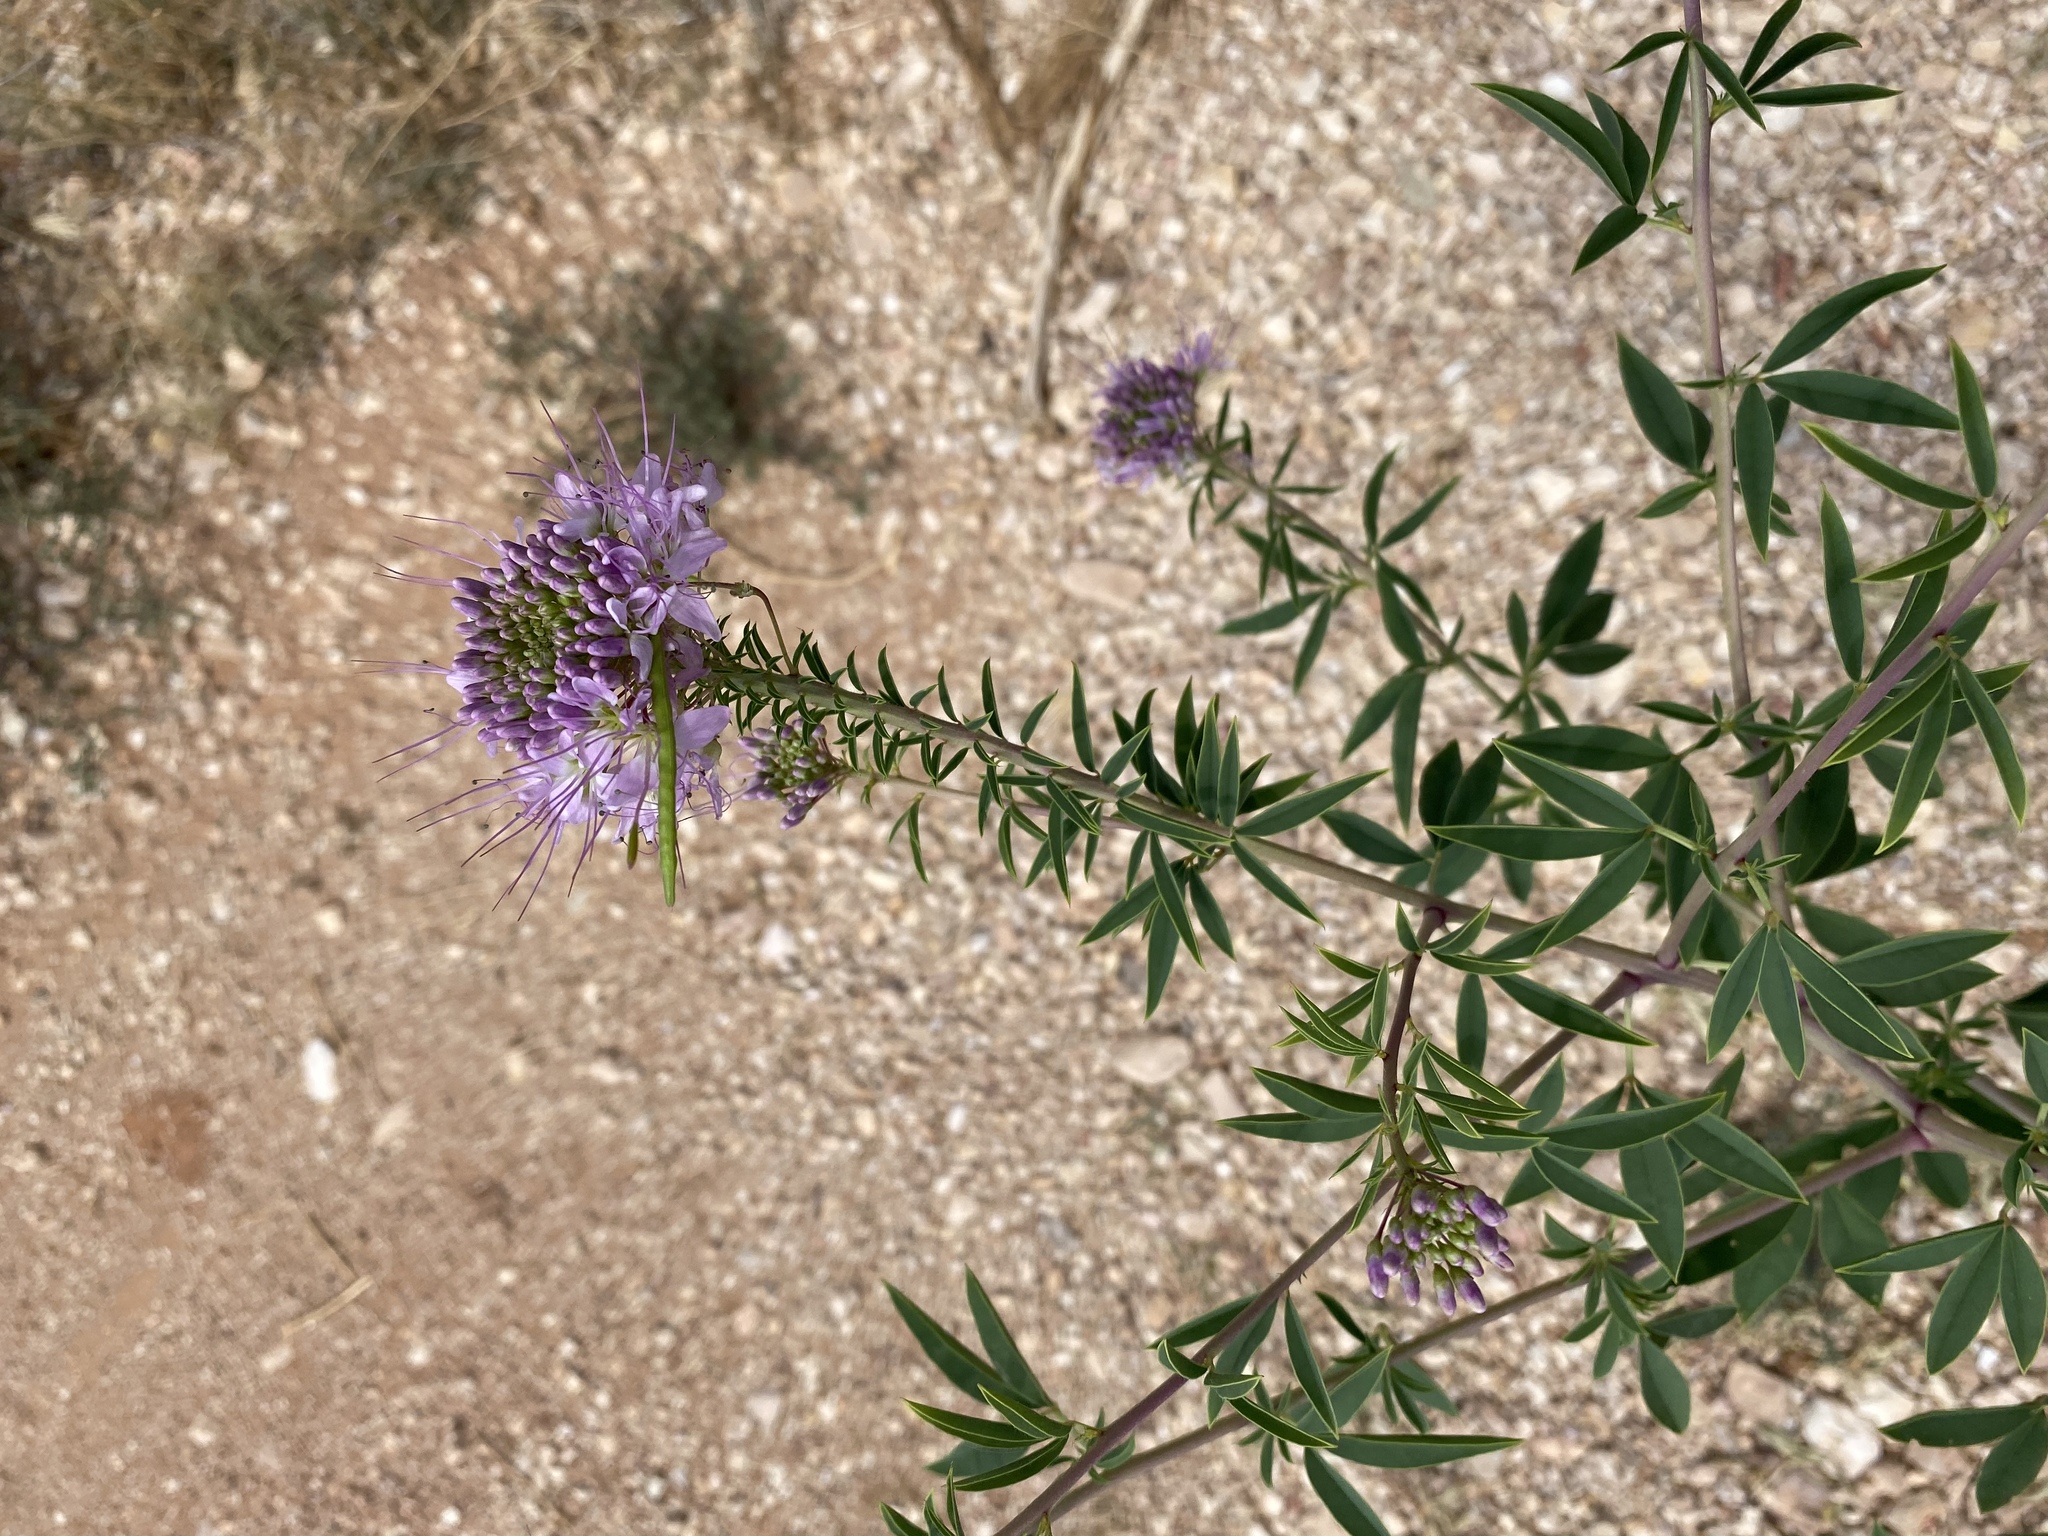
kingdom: Plantae
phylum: Tracheophyta
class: Magnoliopsida
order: Brassicales
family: Cleomaceae
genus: Cleomella
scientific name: Cleomella serrulata
